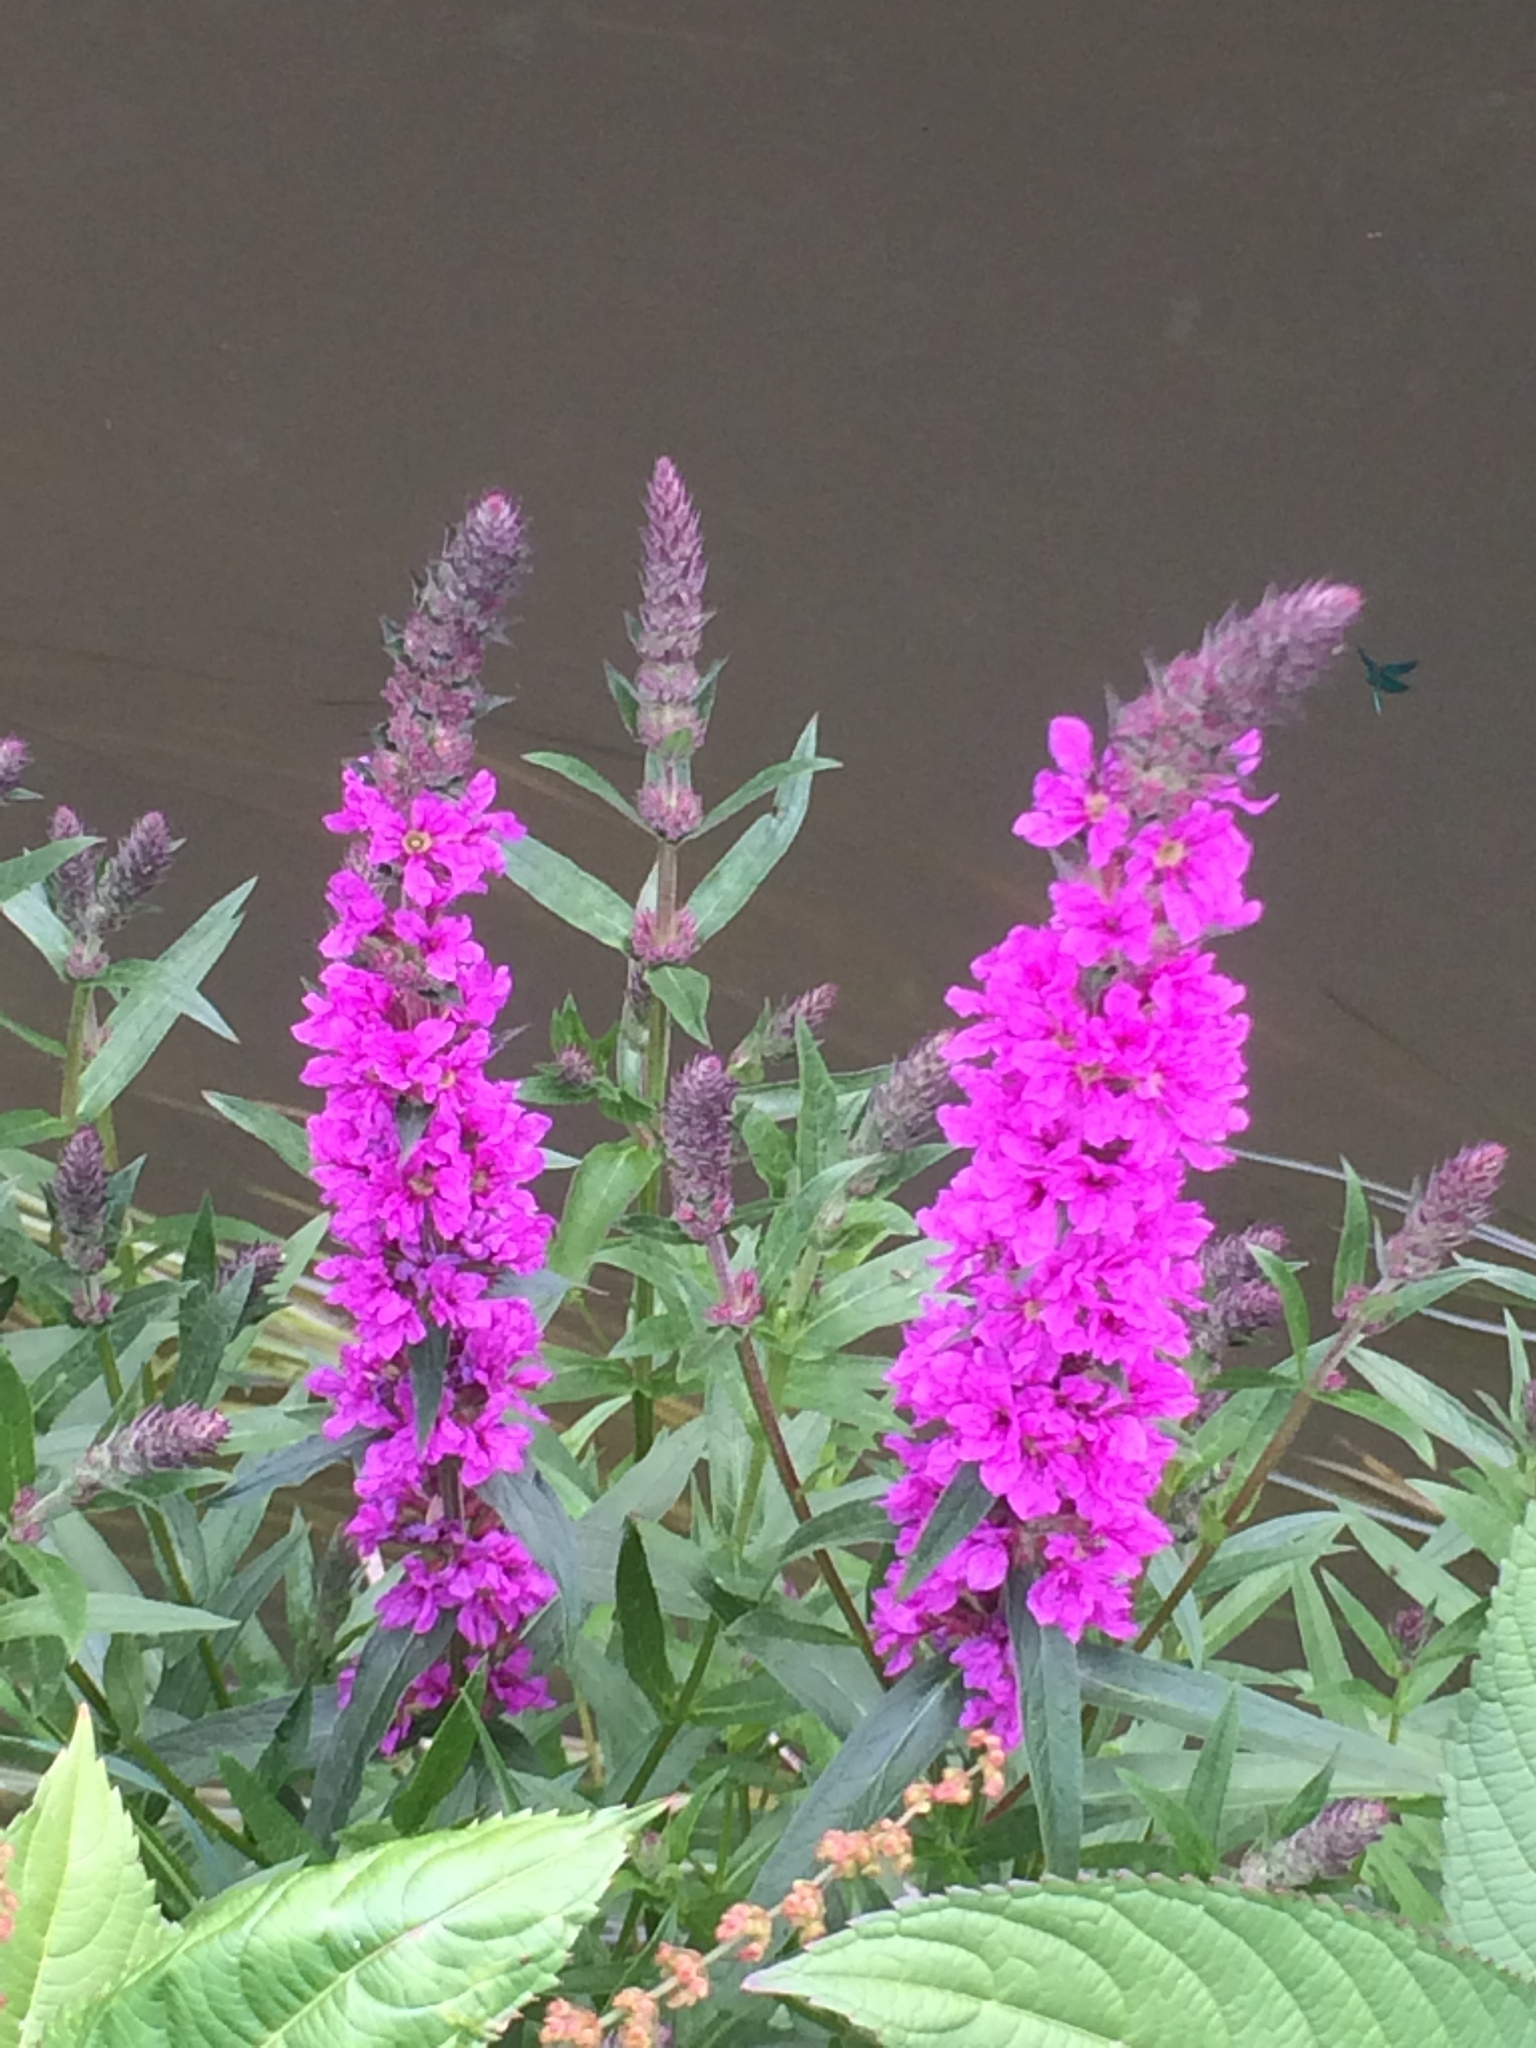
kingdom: Plantae
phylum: Tracheophyta
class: Magnoliopsida
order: Myrtales
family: Lythraceae
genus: Lythrum
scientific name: Lythrum salicaria
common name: Purple loosestrife
